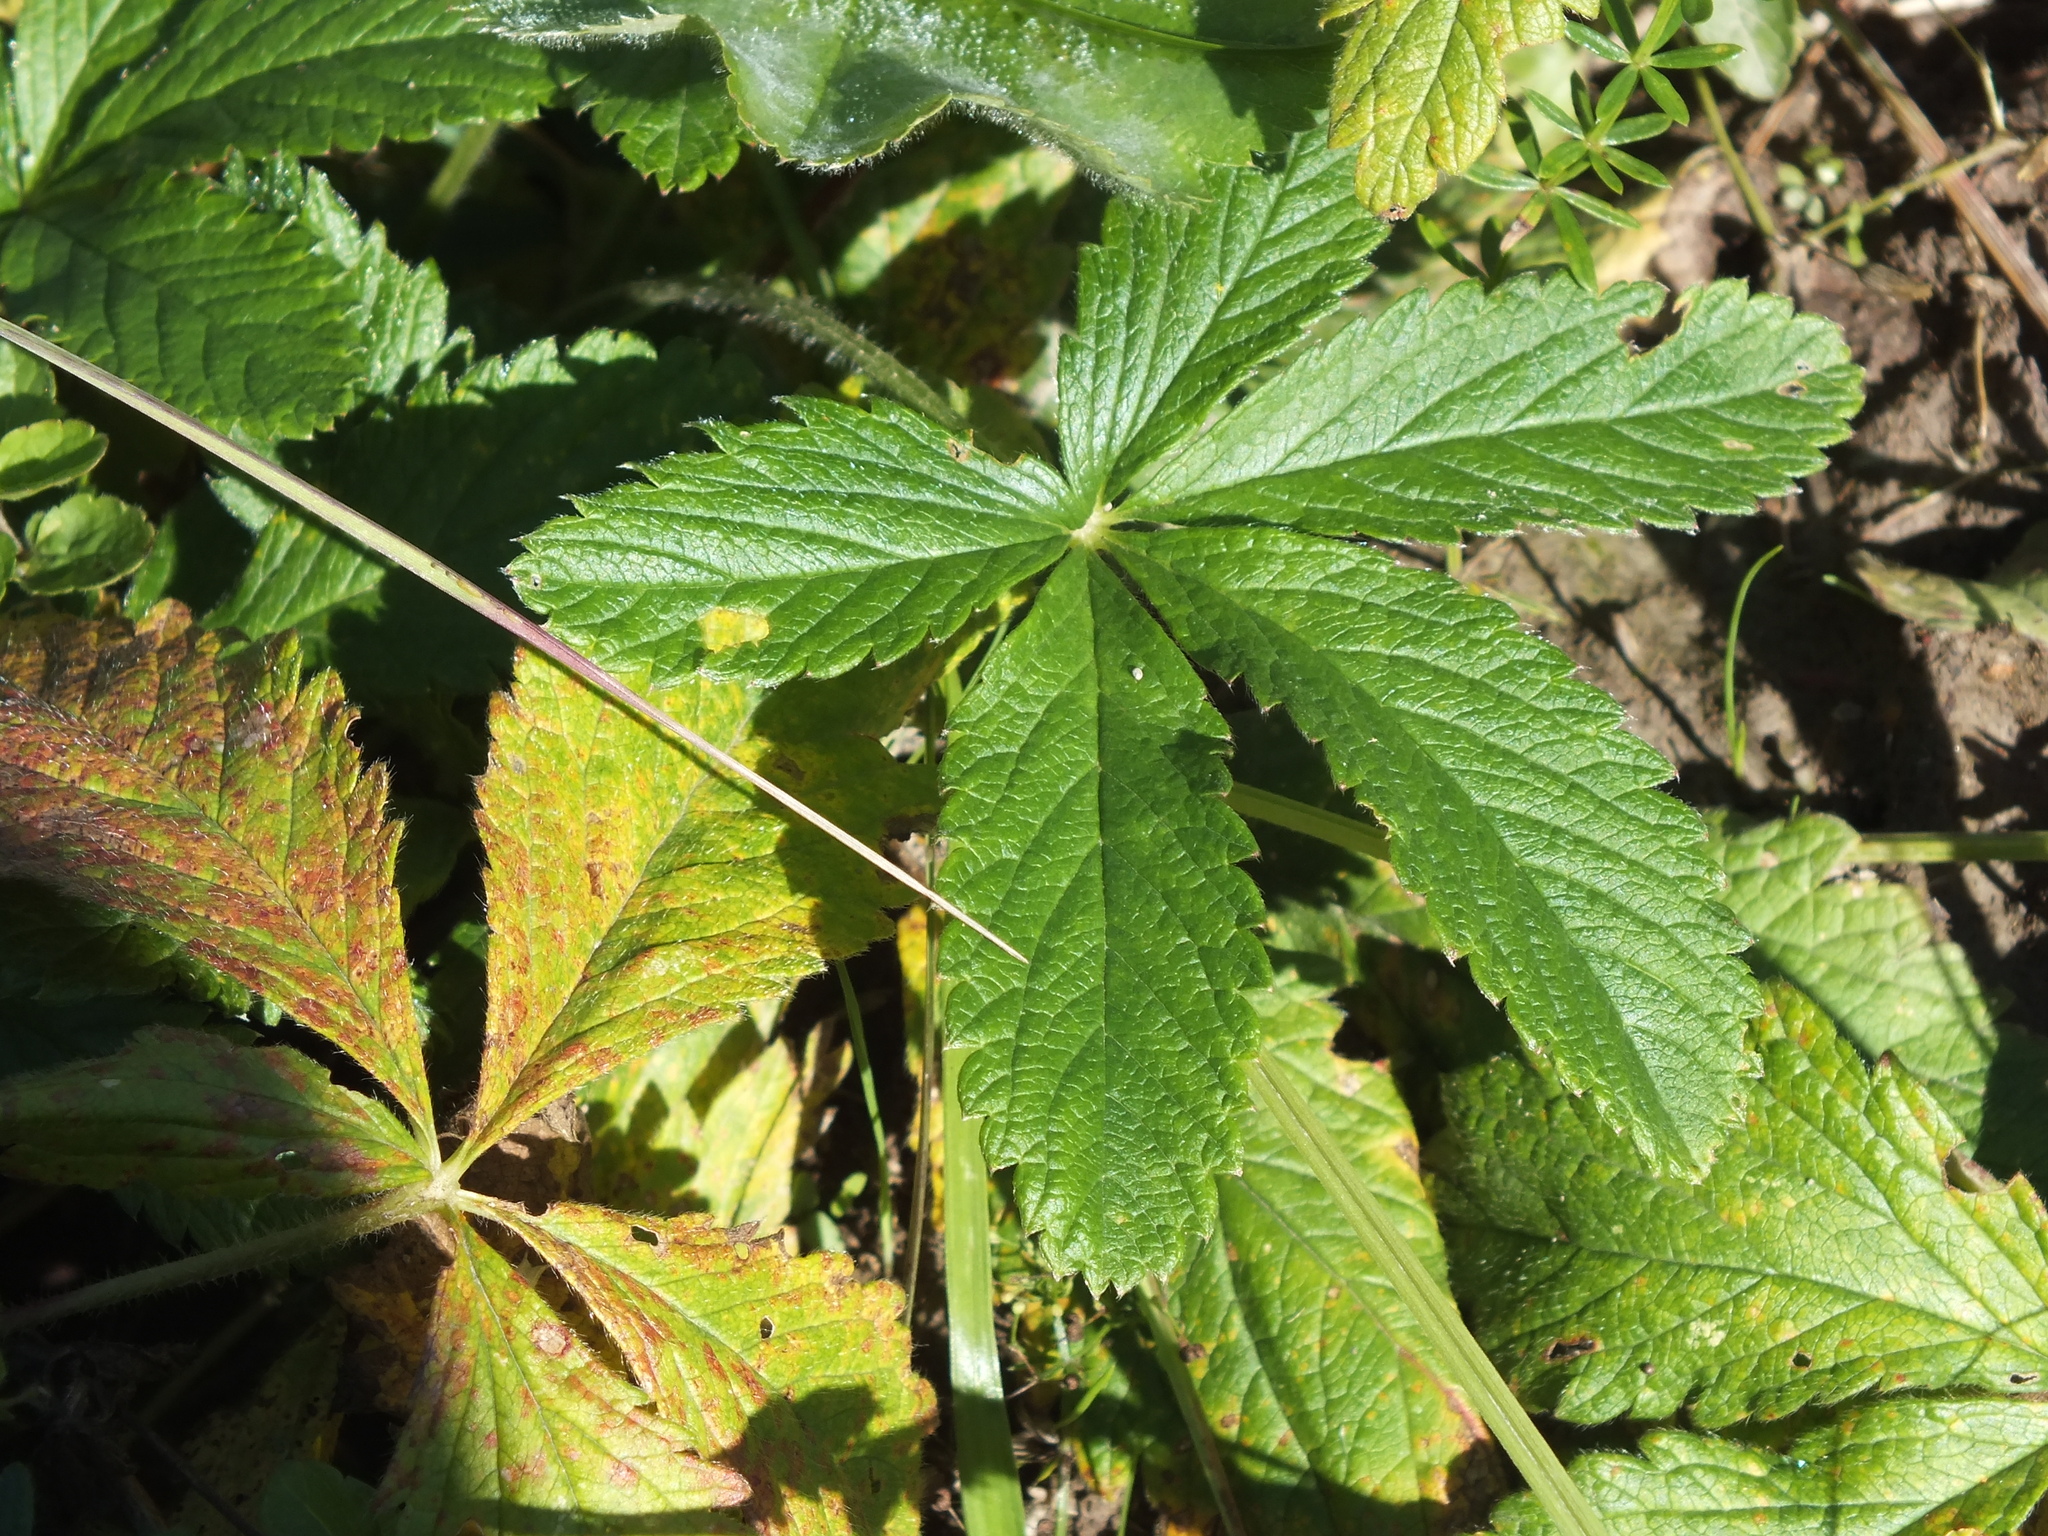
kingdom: Plantae
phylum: Tracheophyta
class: Magnoliopsida
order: Rosales
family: Rosaceae
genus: Potentilla
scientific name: Potentilla fragarioides
